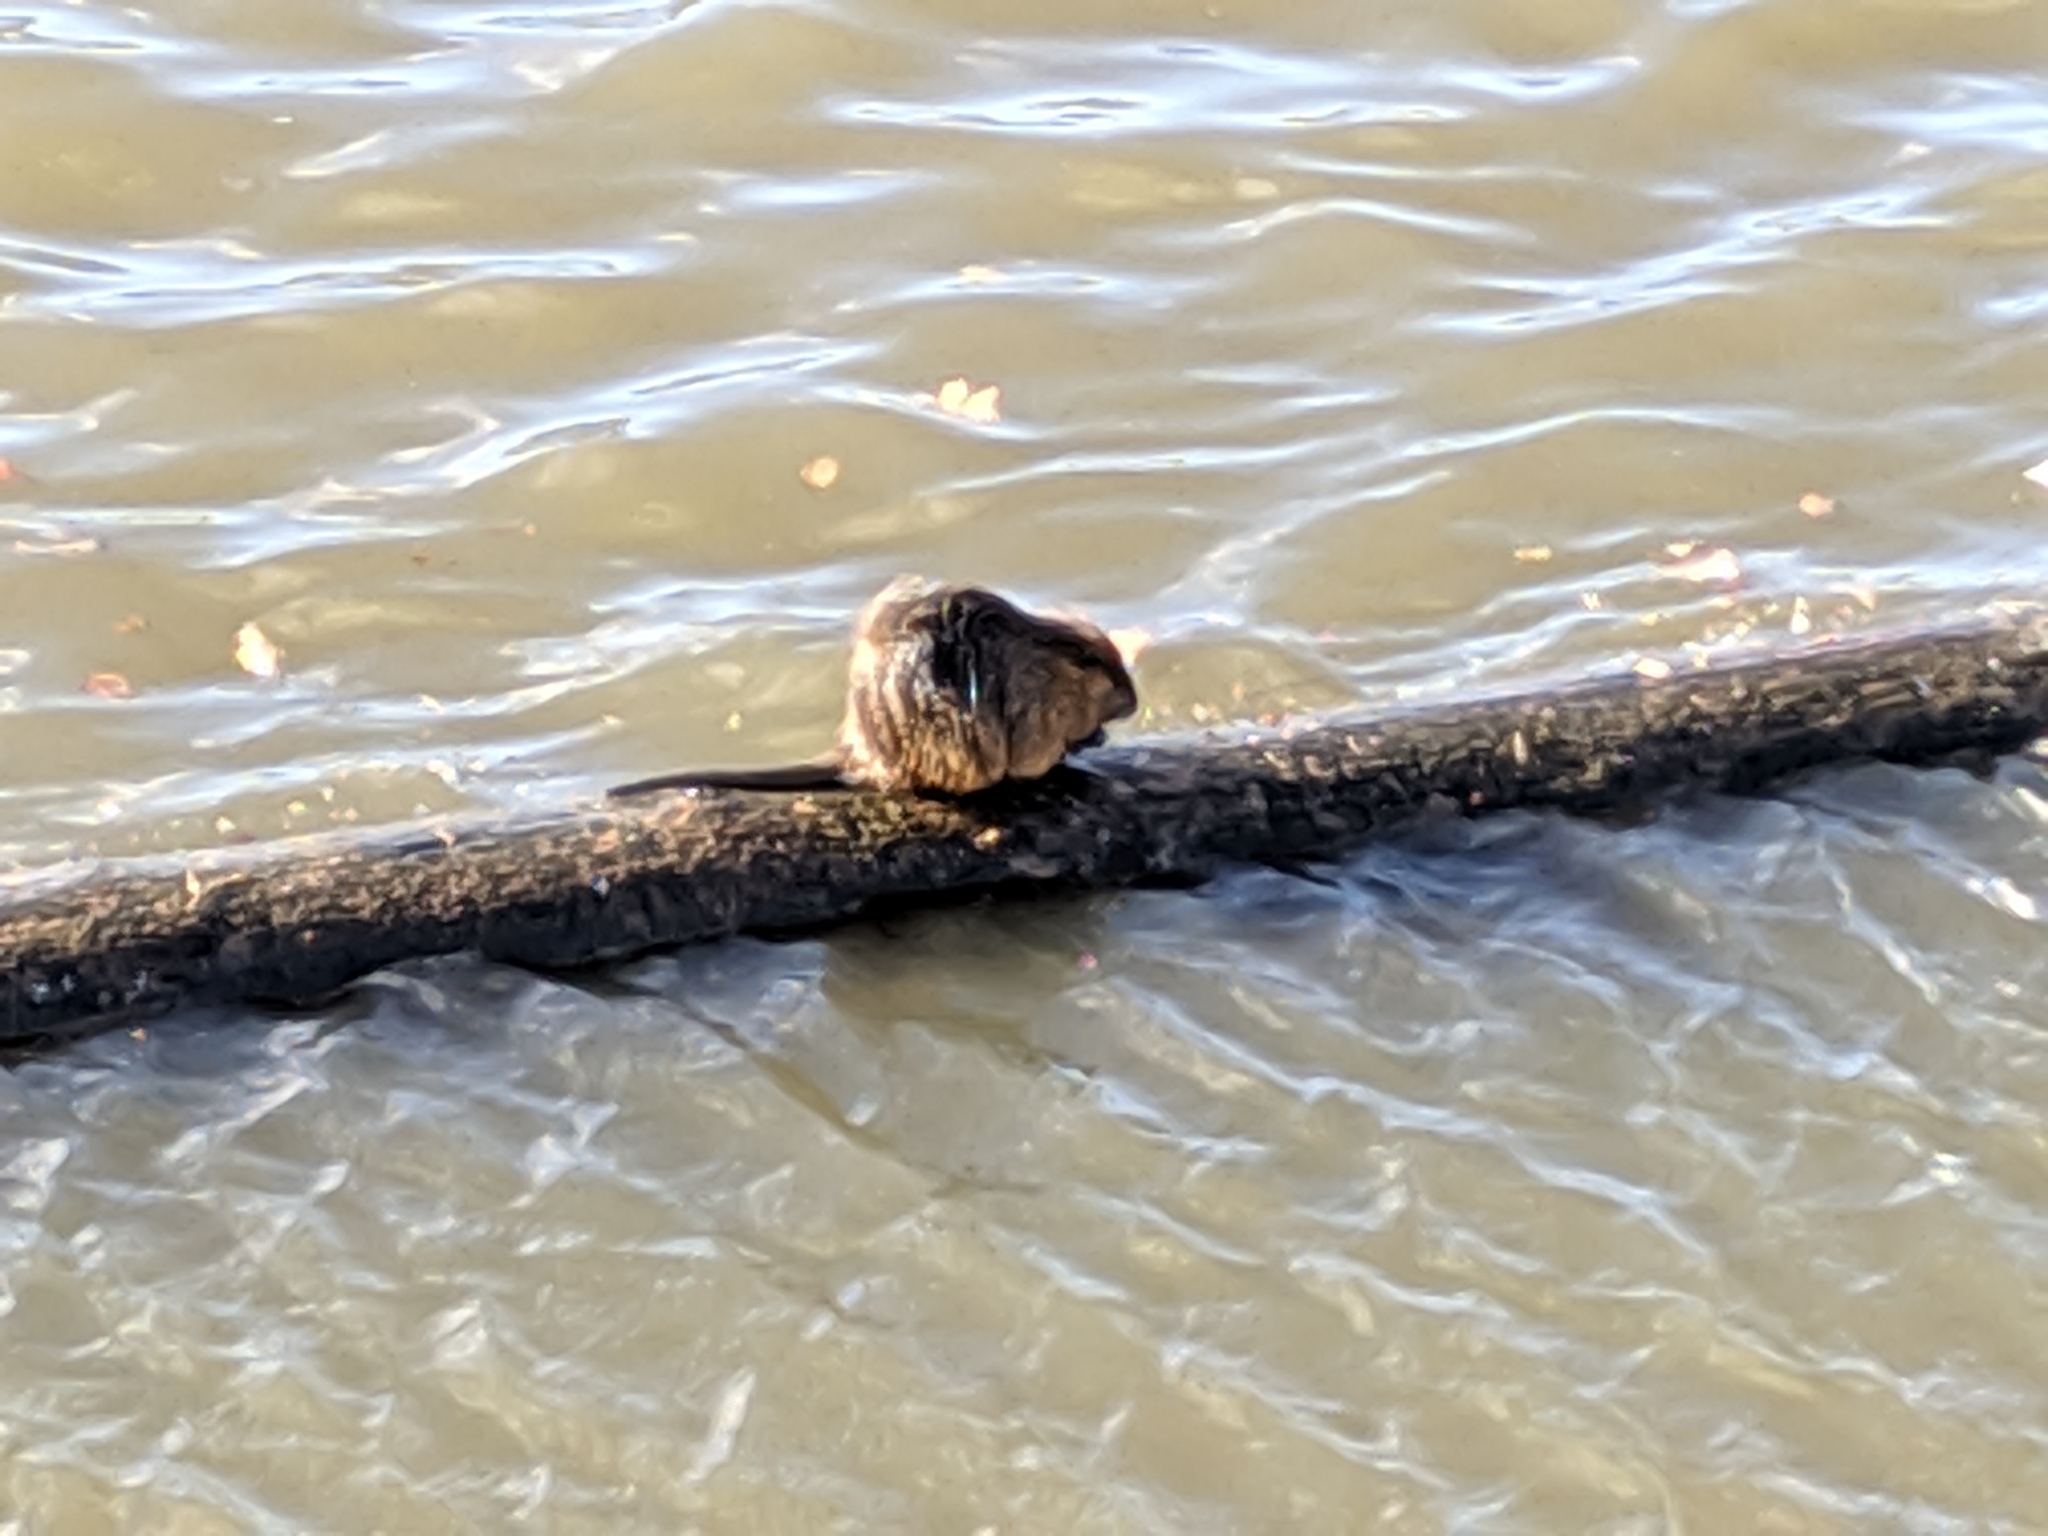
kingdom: Animalia
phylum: Chordata
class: Mammalia
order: Rodentia
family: Myocastoridae
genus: Myocastor
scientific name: Myocastor coypus
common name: Coypu
